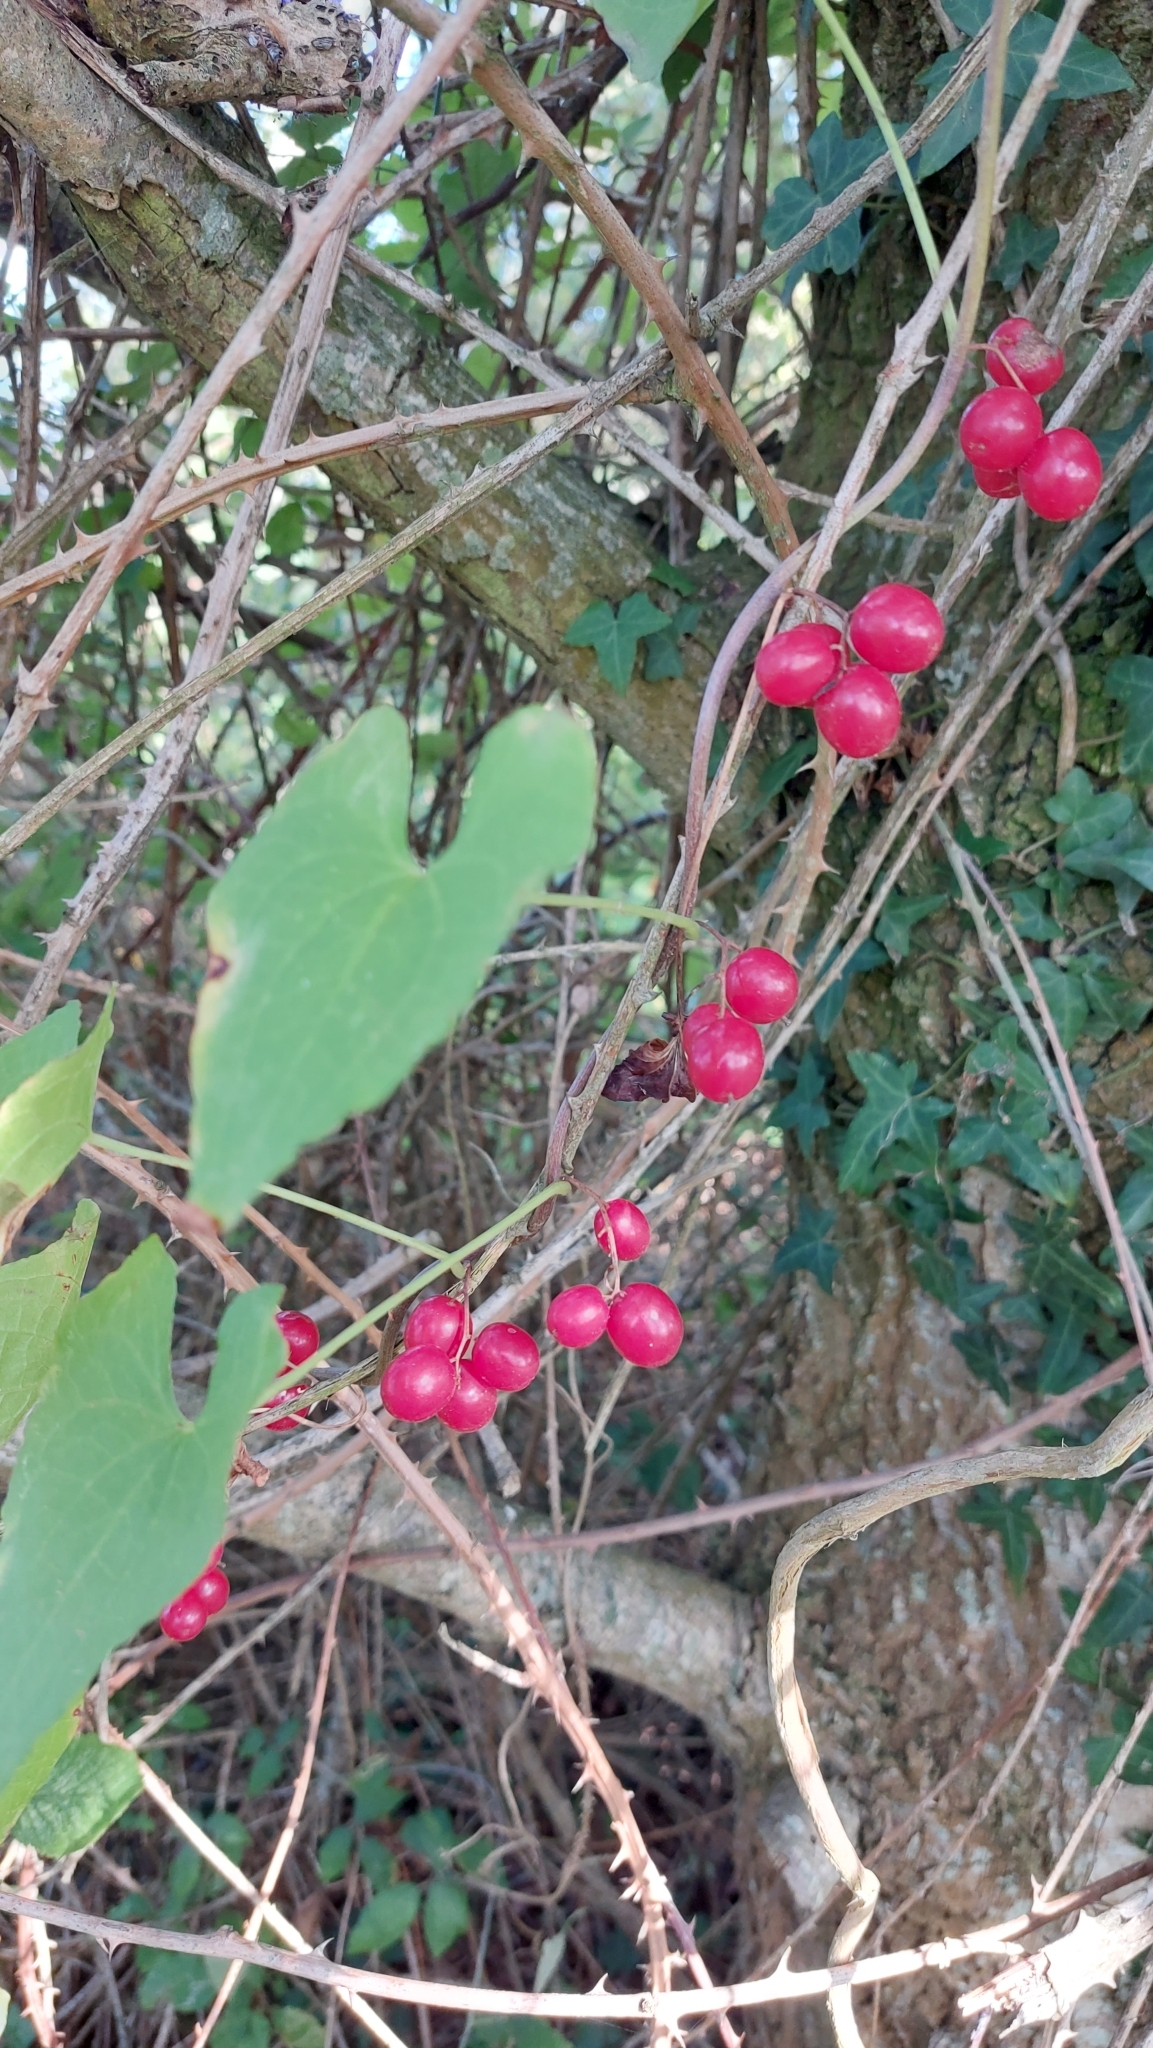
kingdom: Plantae
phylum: Tracheophyta
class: Liliopsida
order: Dioscoreales
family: Dioscoreaceae
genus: Dioscorea
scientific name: Dioscorea communis
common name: Black-bindweed
